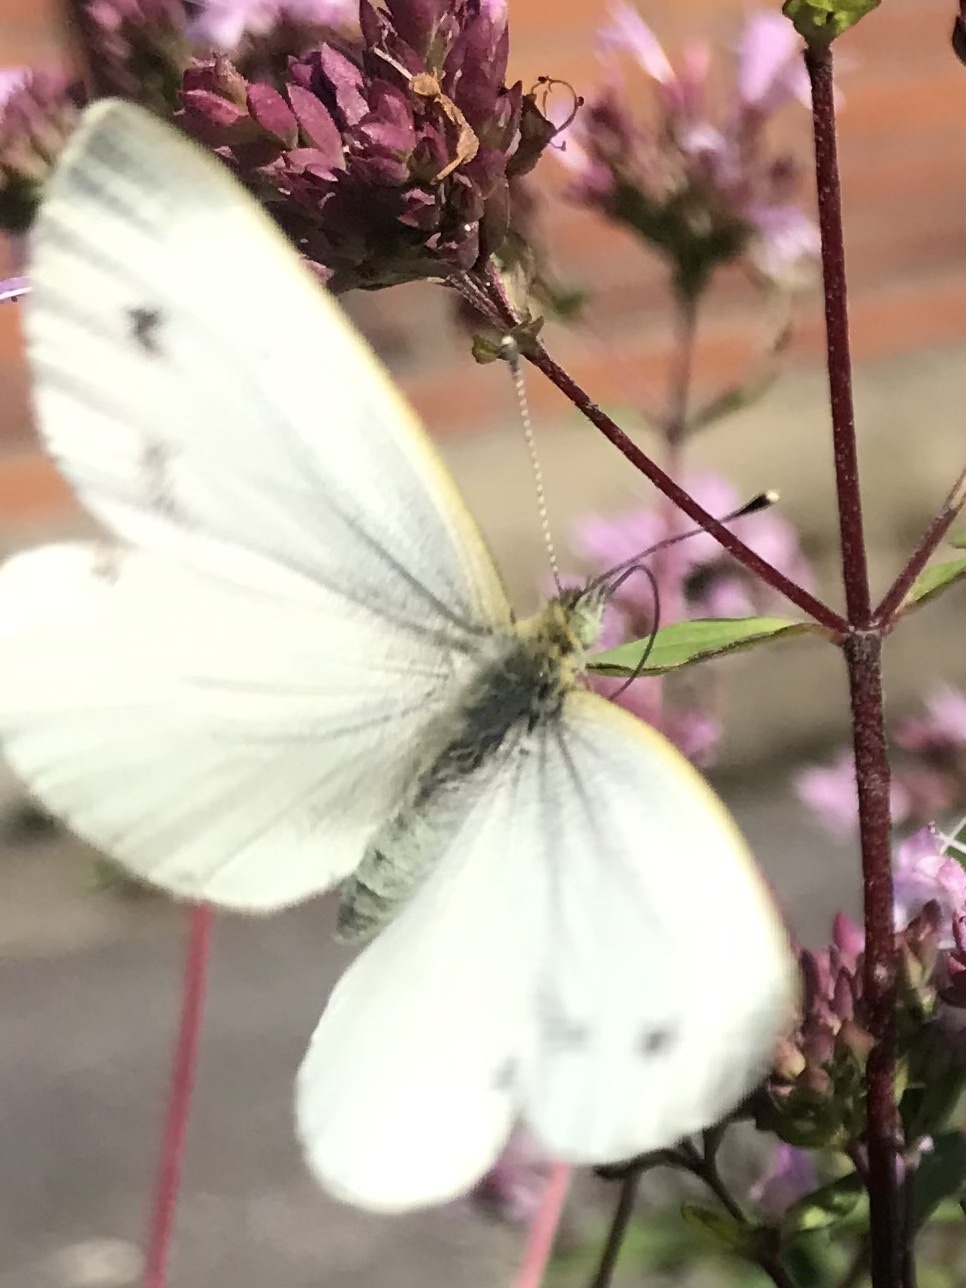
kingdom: Animalia
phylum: Arthropoda
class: Insecta
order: Lepidoptera
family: Pieridae
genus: Pieris
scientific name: Pieris napi
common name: Green-veined white
